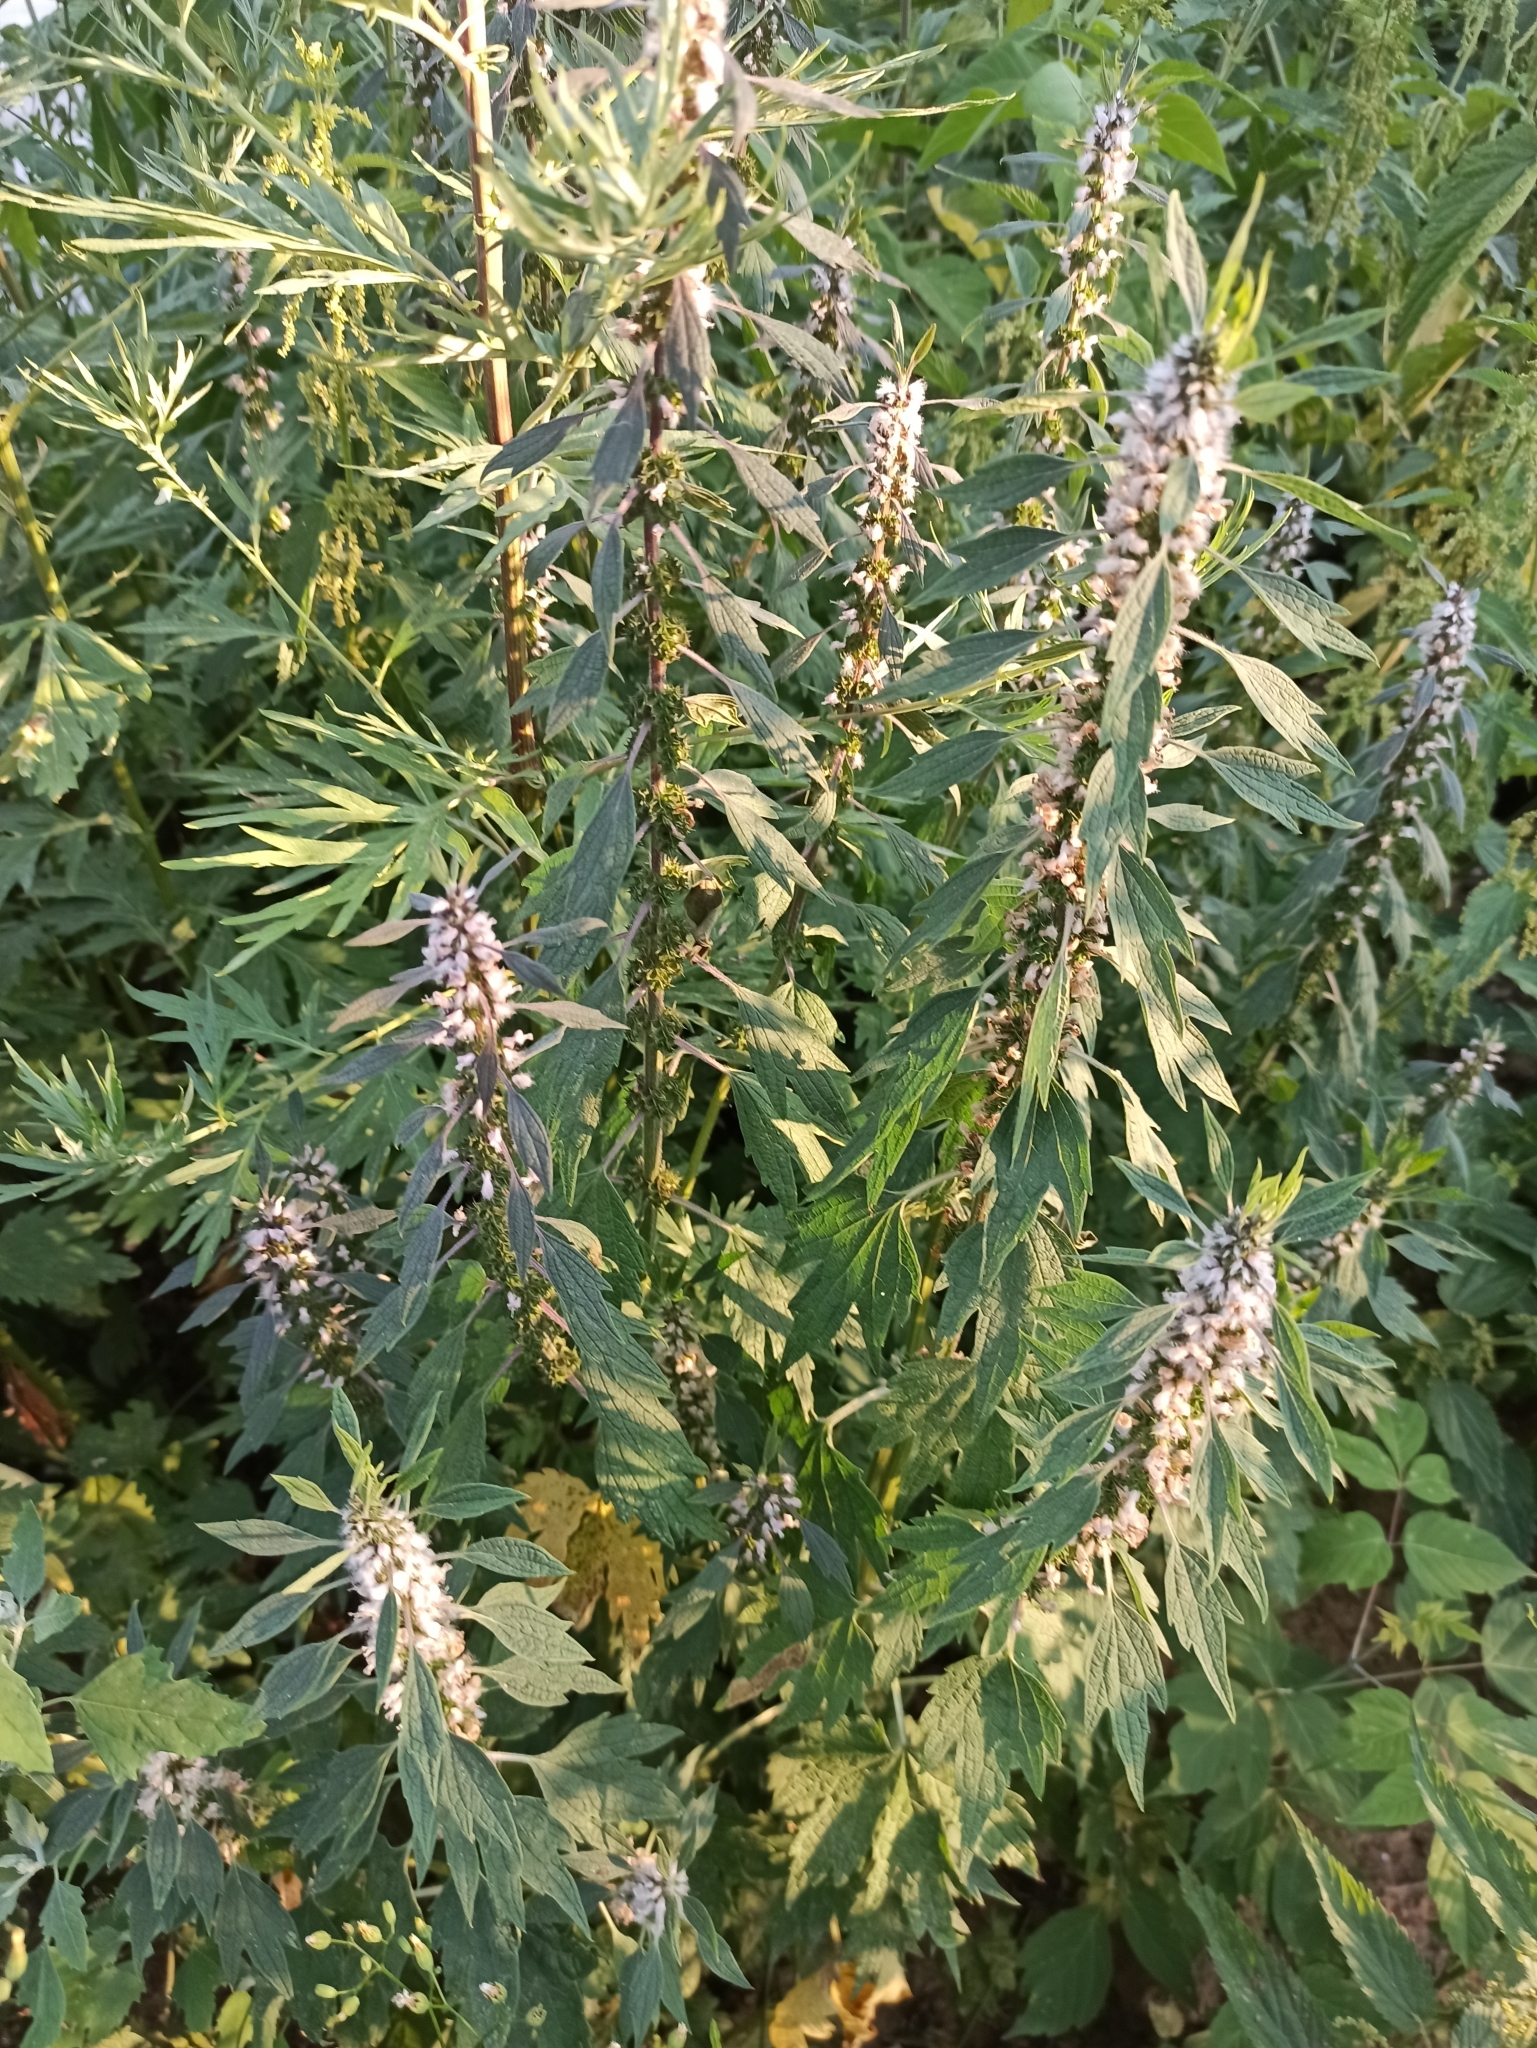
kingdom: Plantae
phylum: Tracheophyta
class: Magnoliopsida
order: Lamiales
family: Lamiaceae
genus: Leonurus
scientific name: Leonurus quinquelobatus
